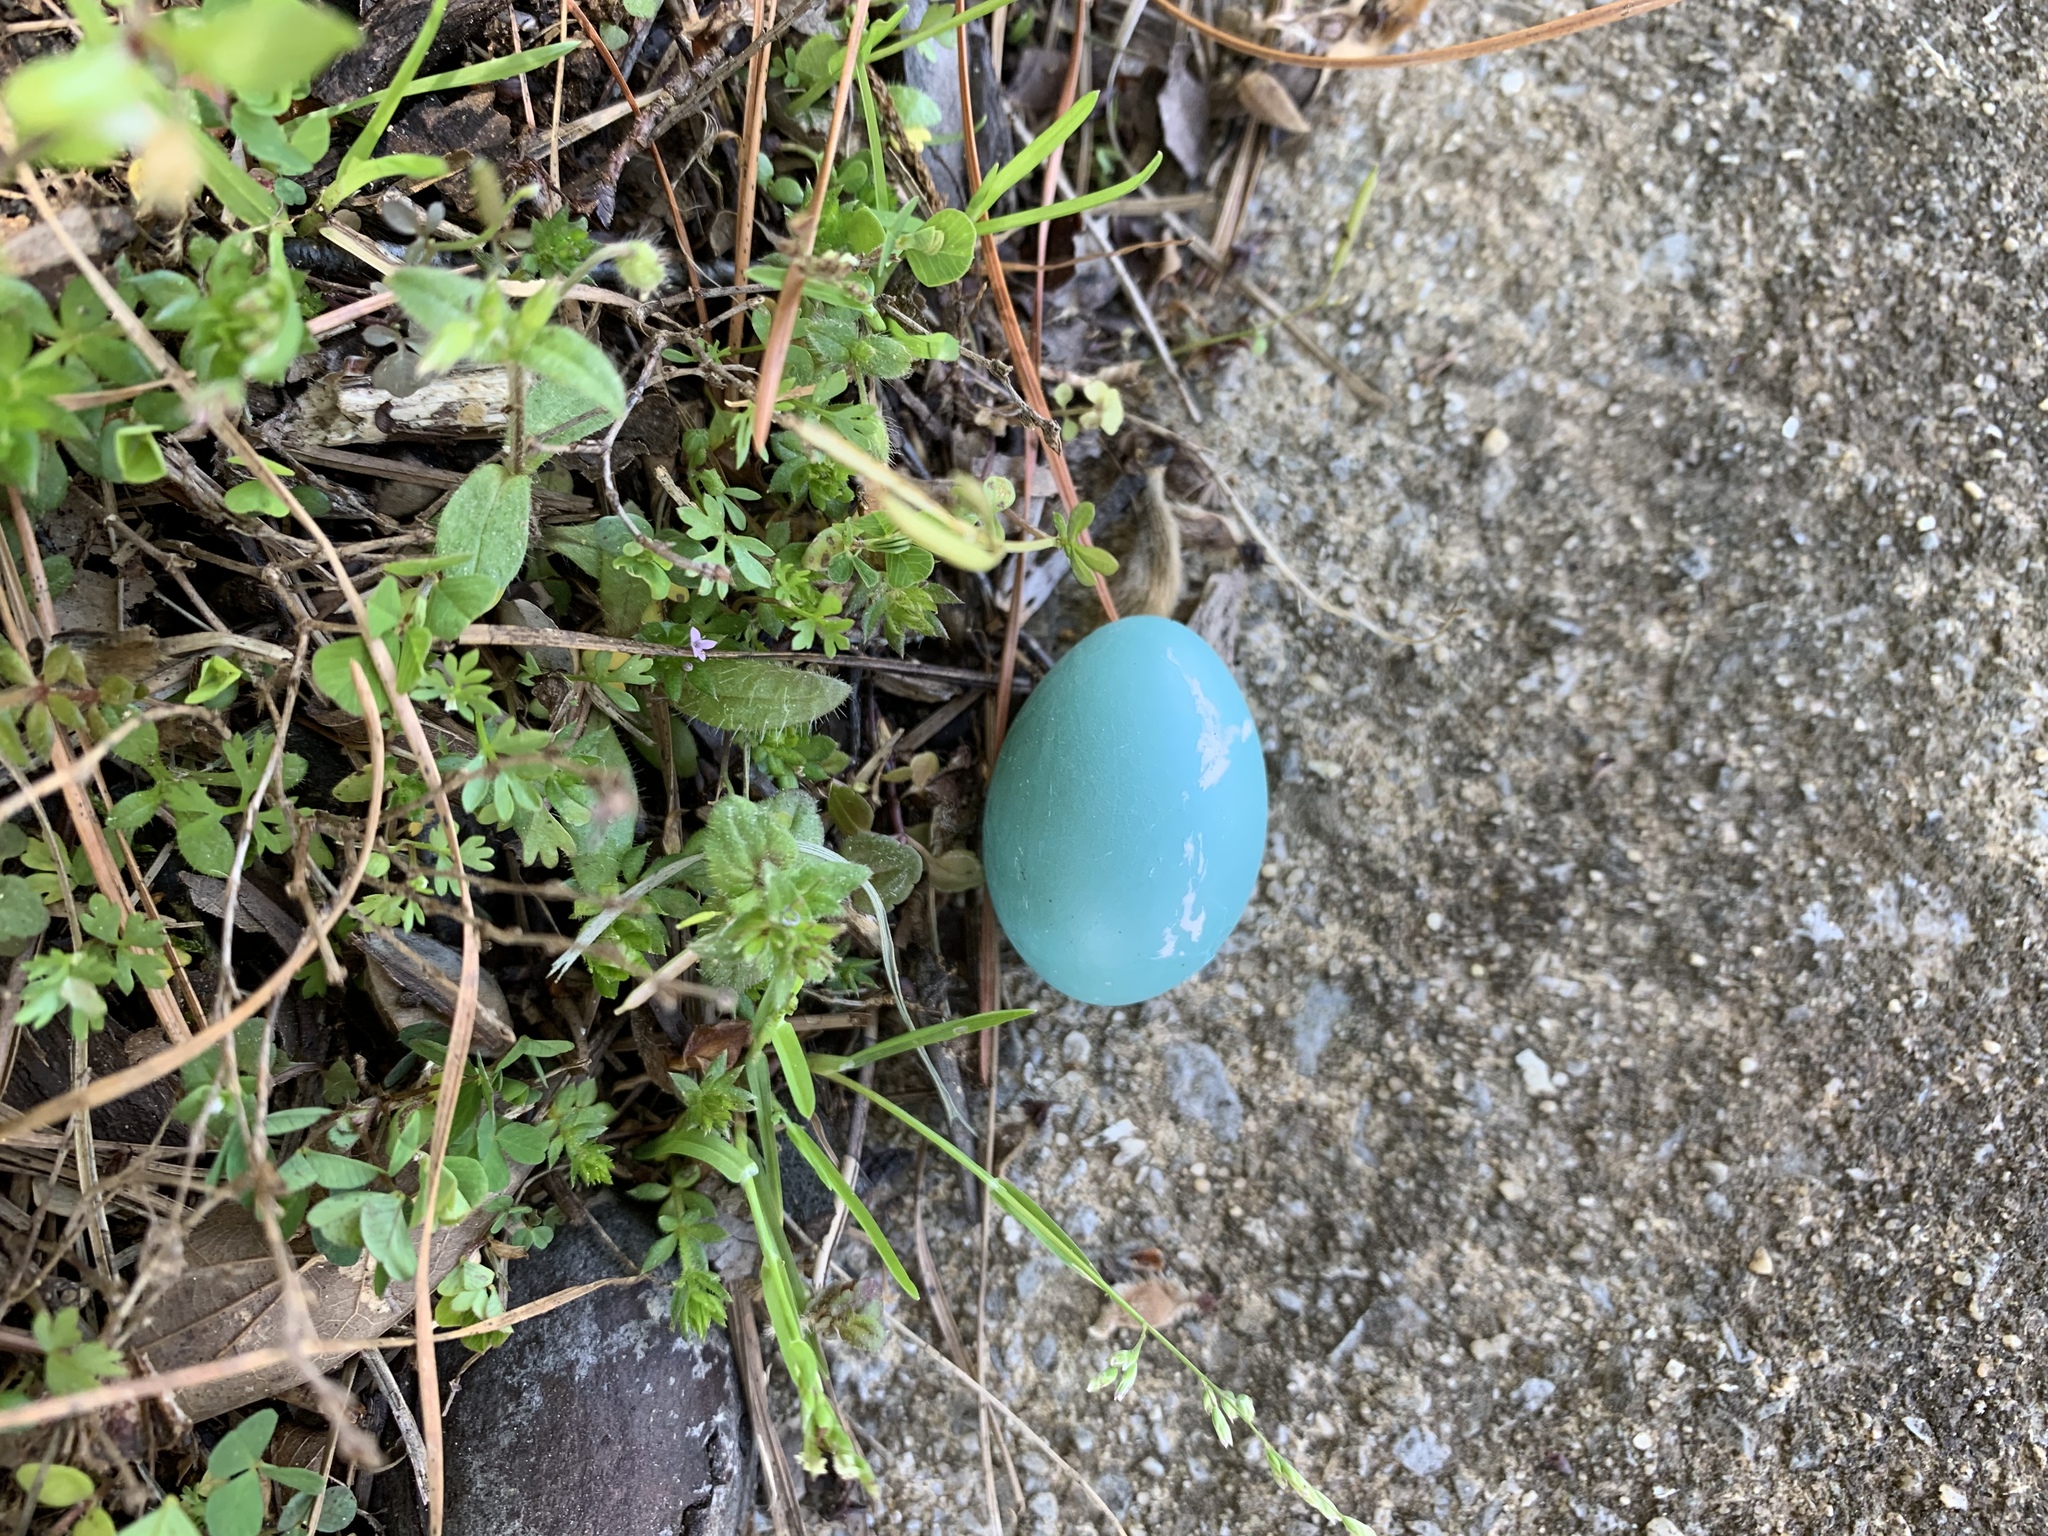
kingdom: Animalia
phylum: Chordata
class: Aves
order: Passeriformes
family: Turdidae
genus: Turdus
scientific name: Turdus migratorius
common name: American robin
